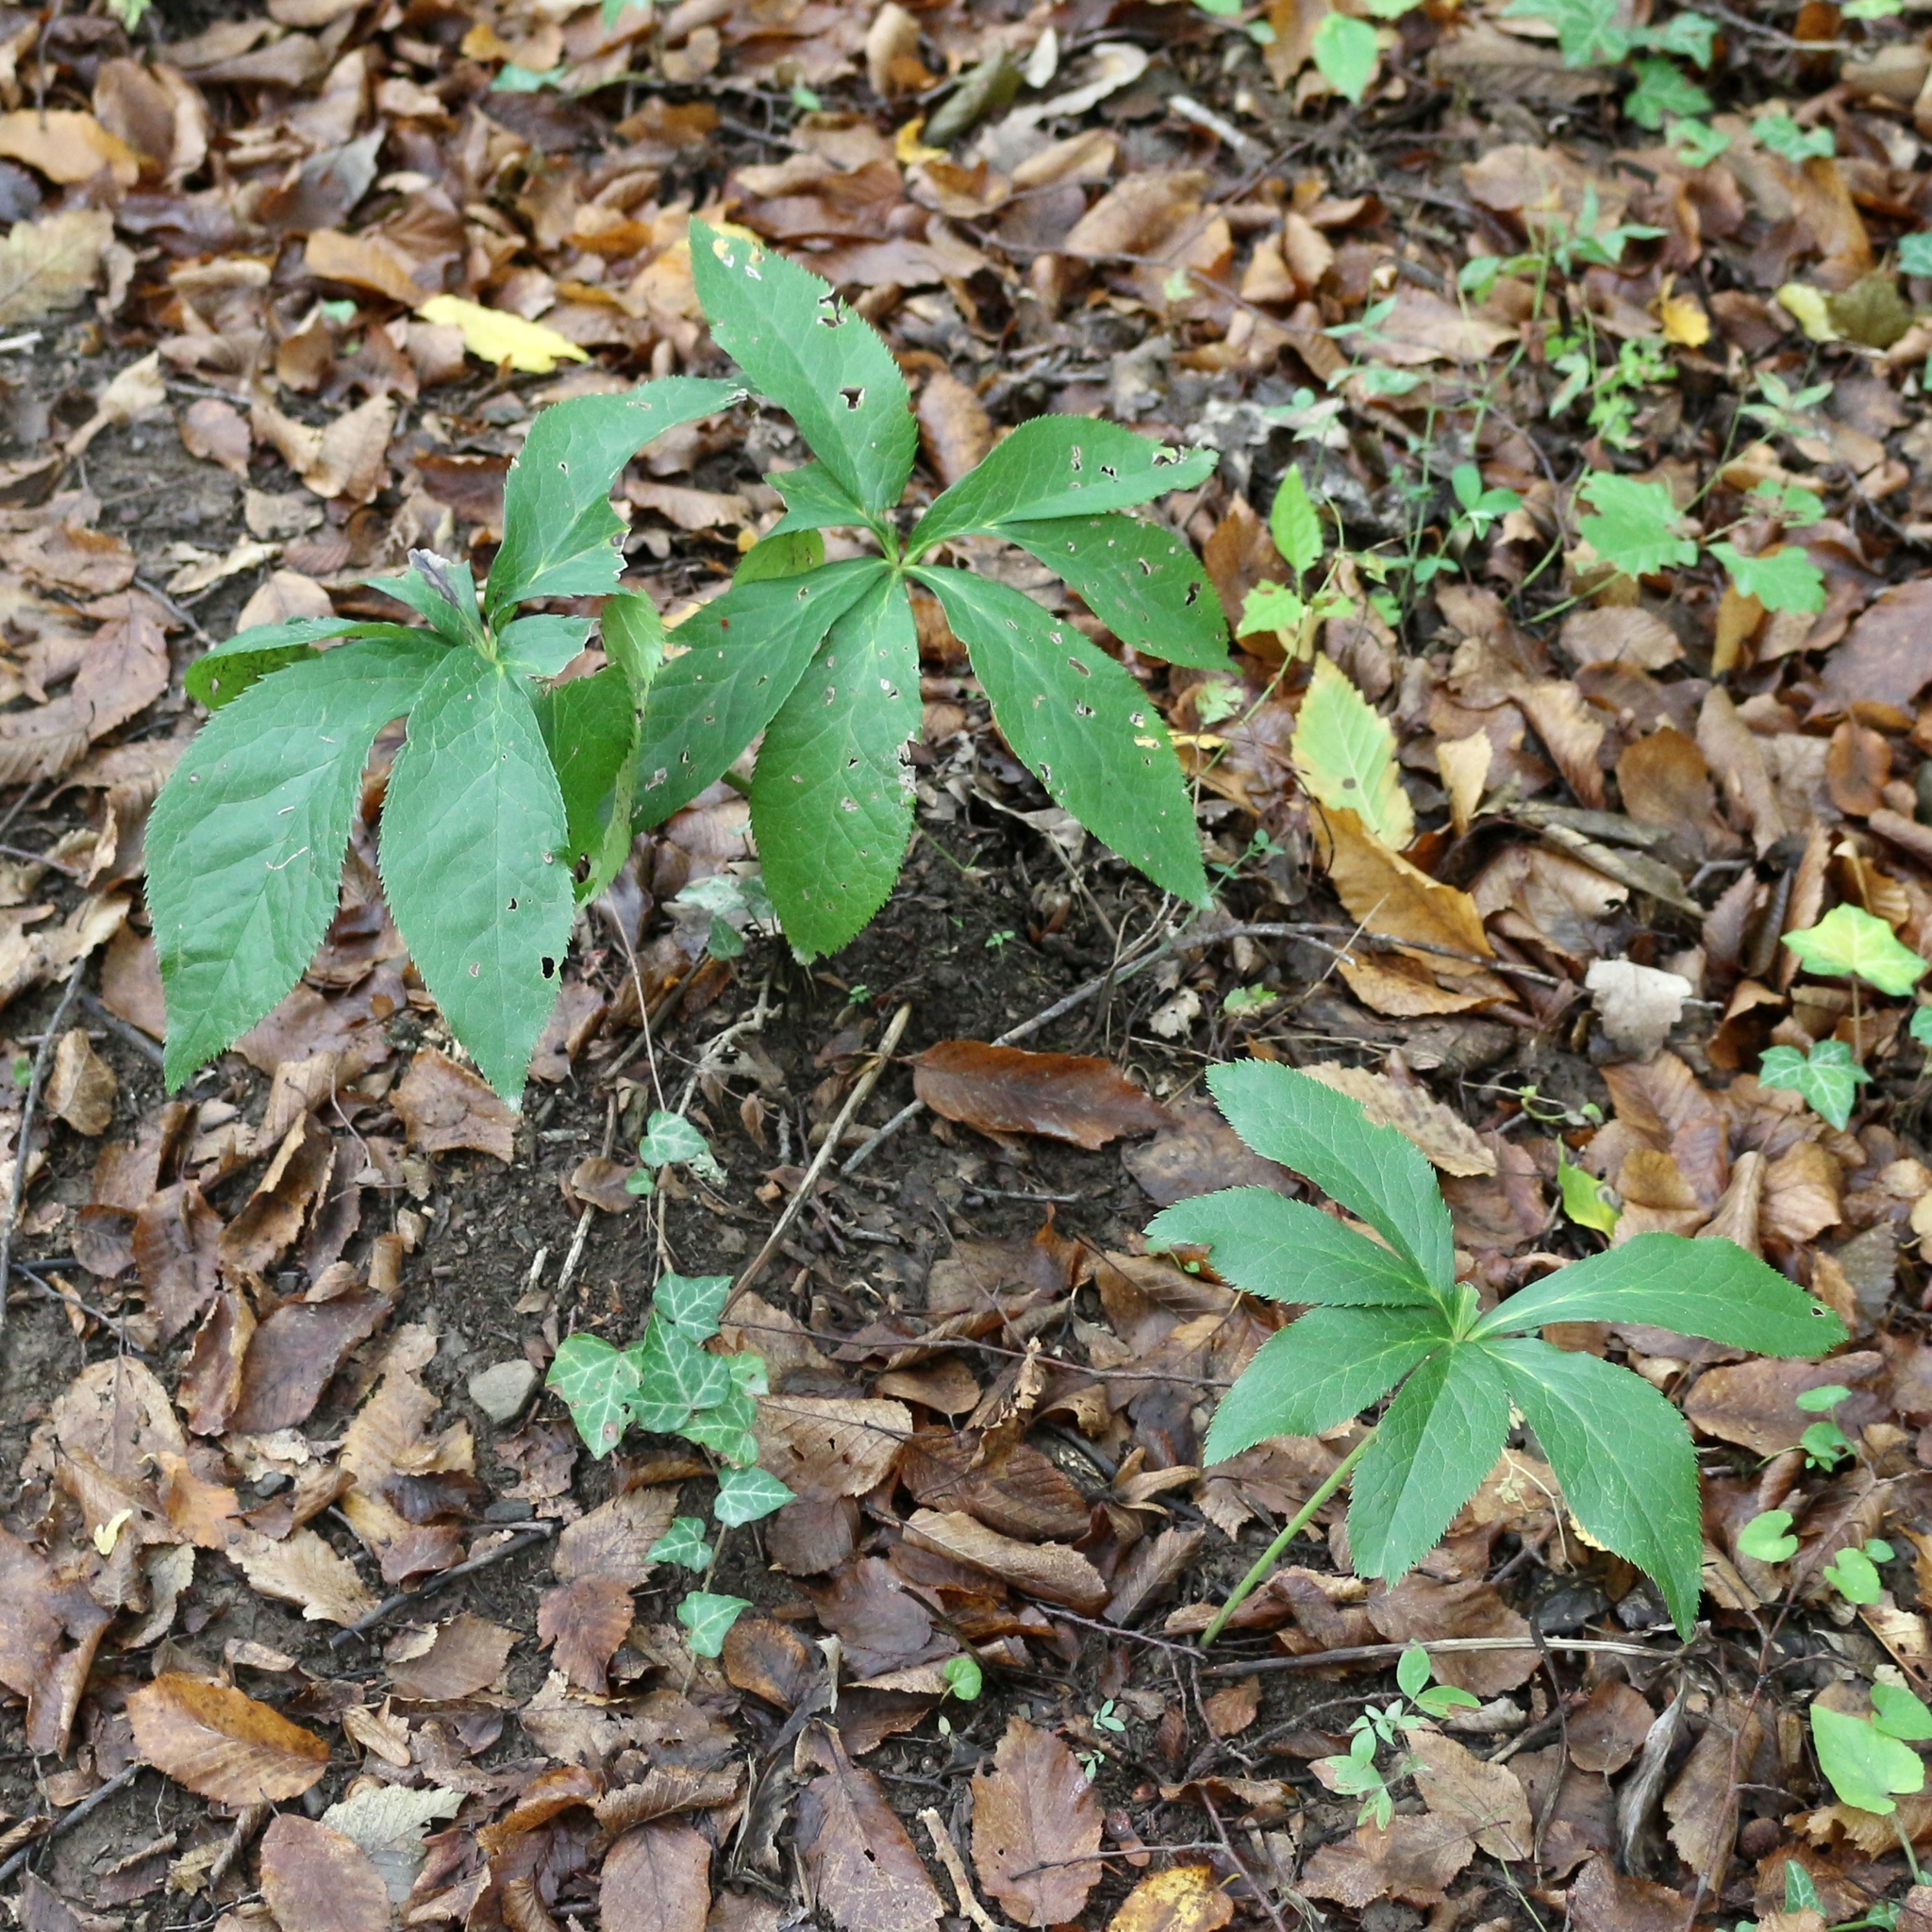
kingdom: Plantae
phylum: Tracheophyta
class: Magnoliopsida
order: Ranunculales
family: Ranunculaceae
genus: Helleborus
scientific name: Helleborus orientalis
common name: Lenten-rose
